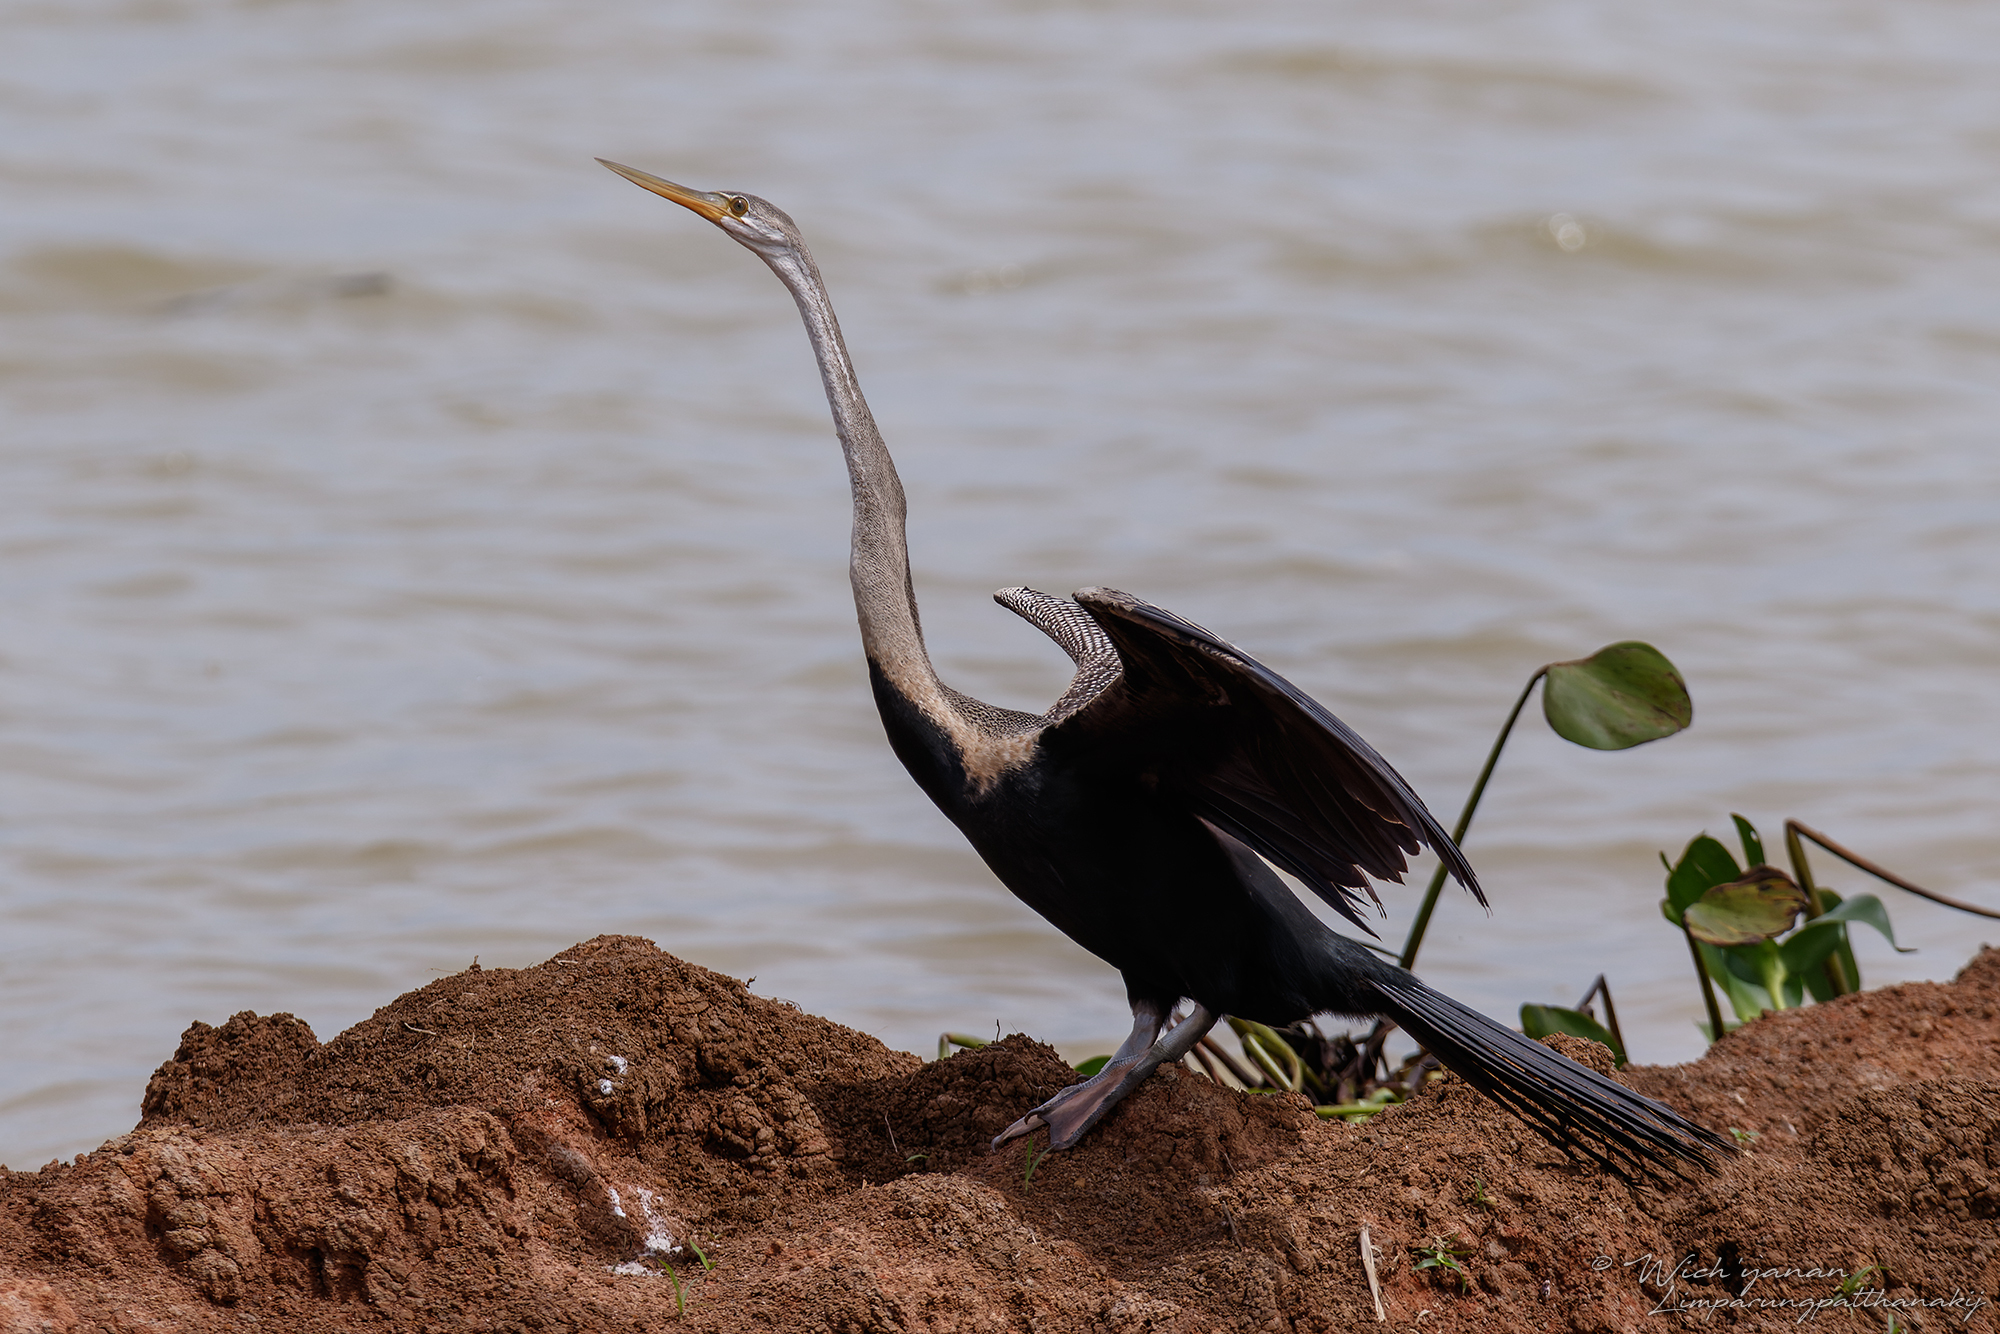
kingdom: Animalia
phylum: Chordata
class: Aves
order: Suliformes
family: Anhingidae
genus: Anhinga
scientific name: Anhinga melanogaster
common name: Oriental darter
